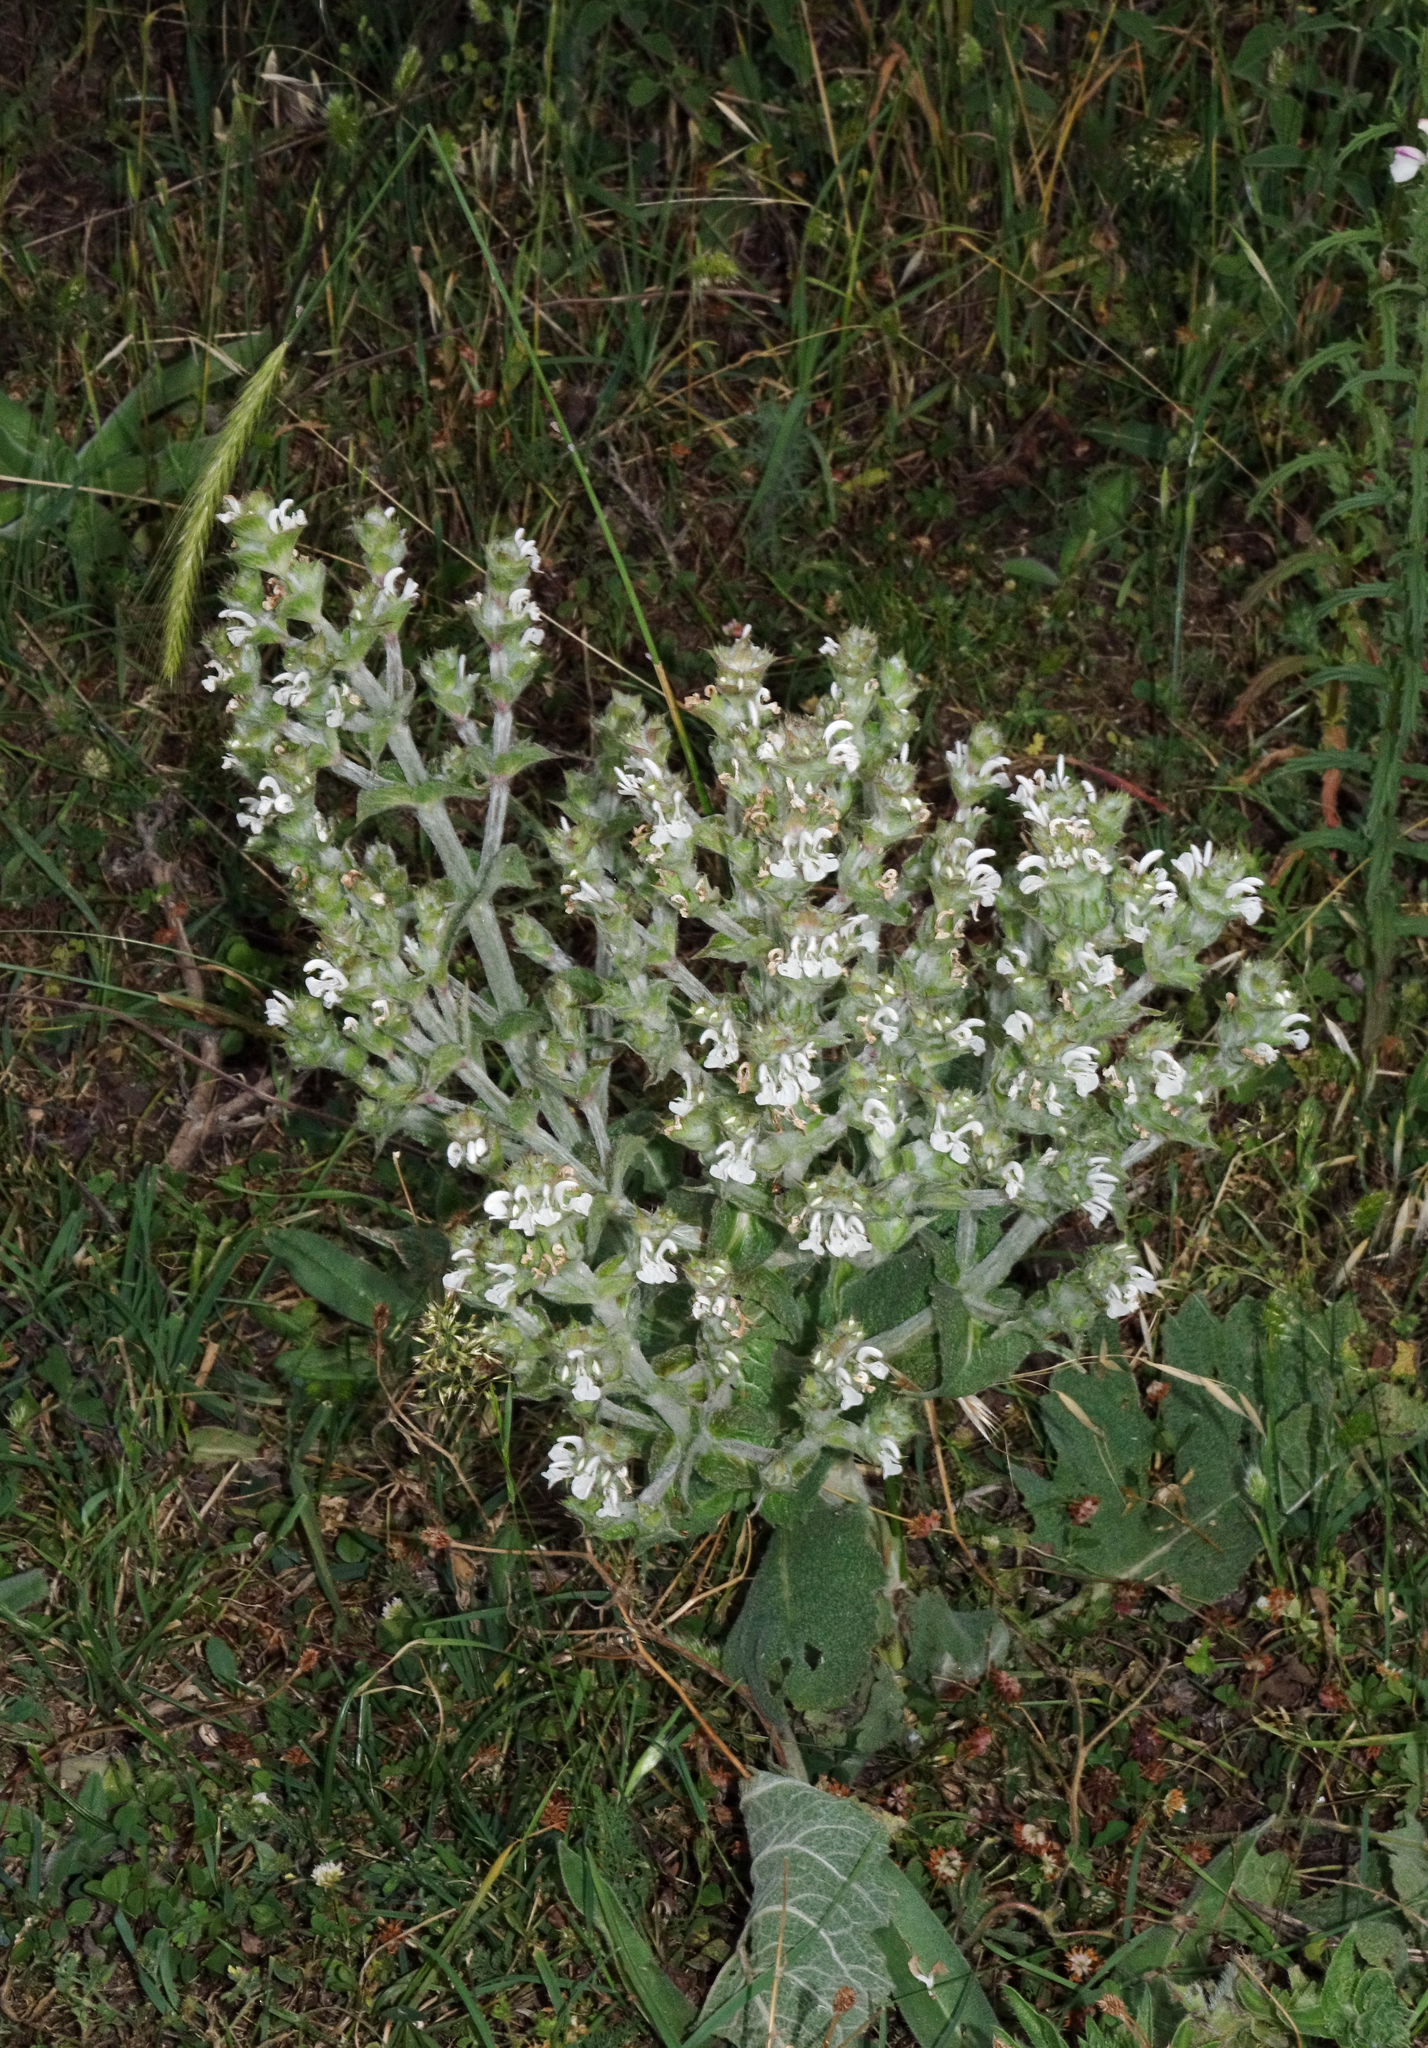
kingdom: Plantae
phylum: Tracheophyta
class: Magnoliopsida
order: Lamiales
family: Lamiaceae
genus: Salvia
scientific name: Salvia aethiopis
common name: Mediterranean sage
